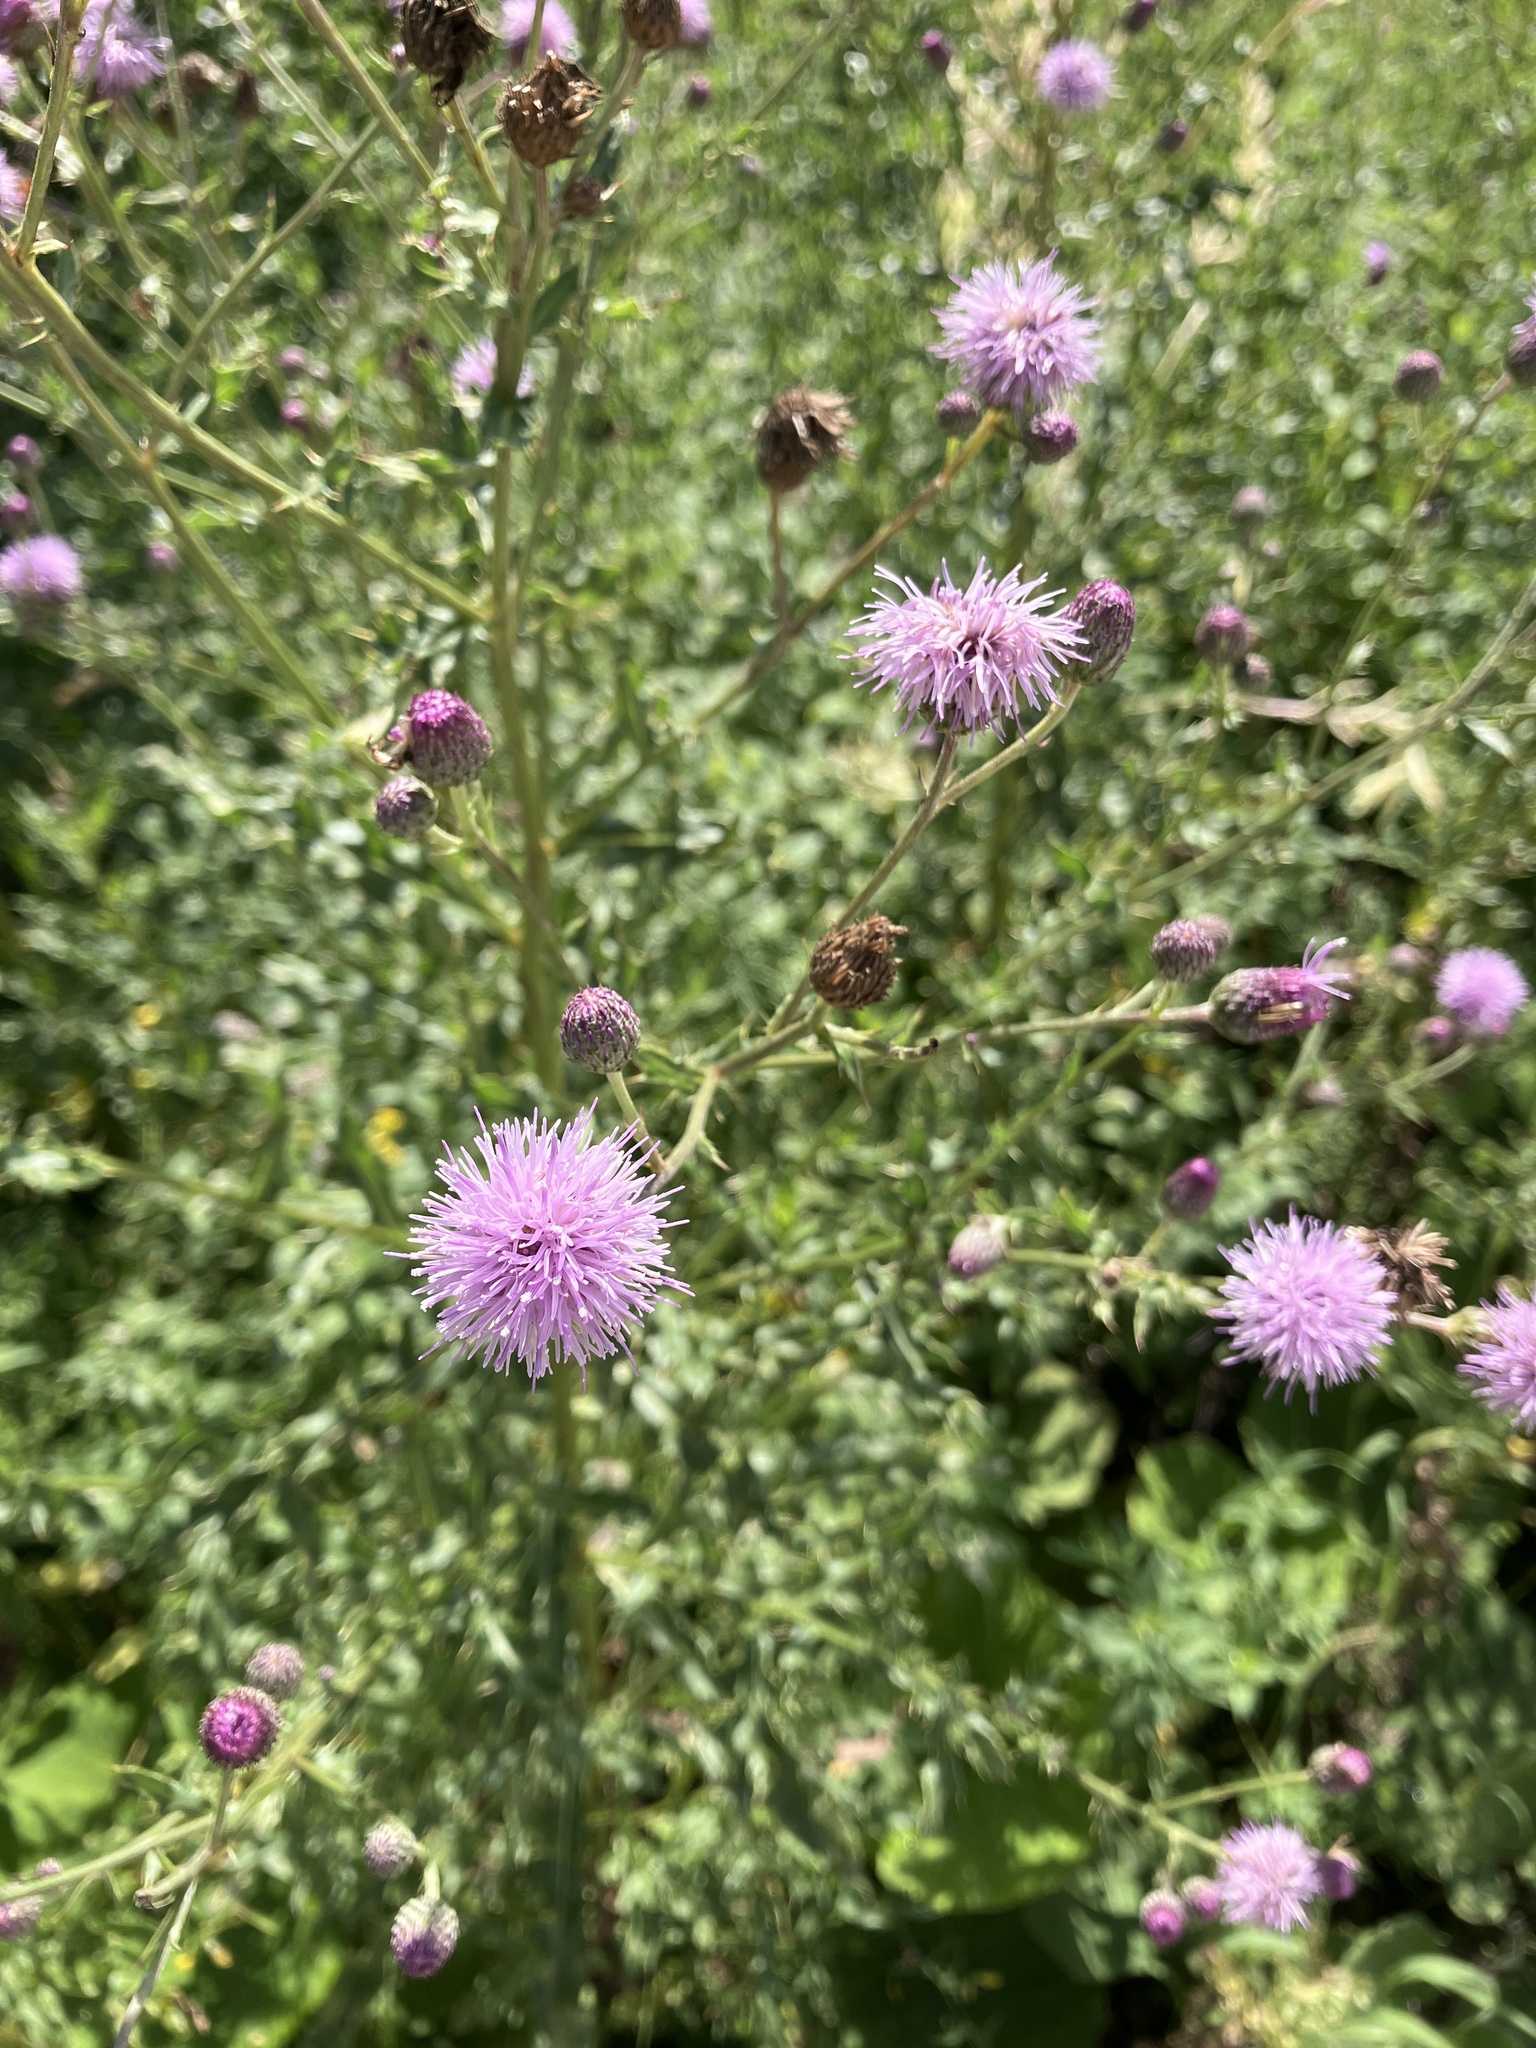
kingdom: Plantae
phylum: Tracheophyta
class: Magnoliopsida
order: Asterales
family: Asteraceae
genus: Cirsium
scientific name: Cirsium arvense
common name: Creeping thistle
